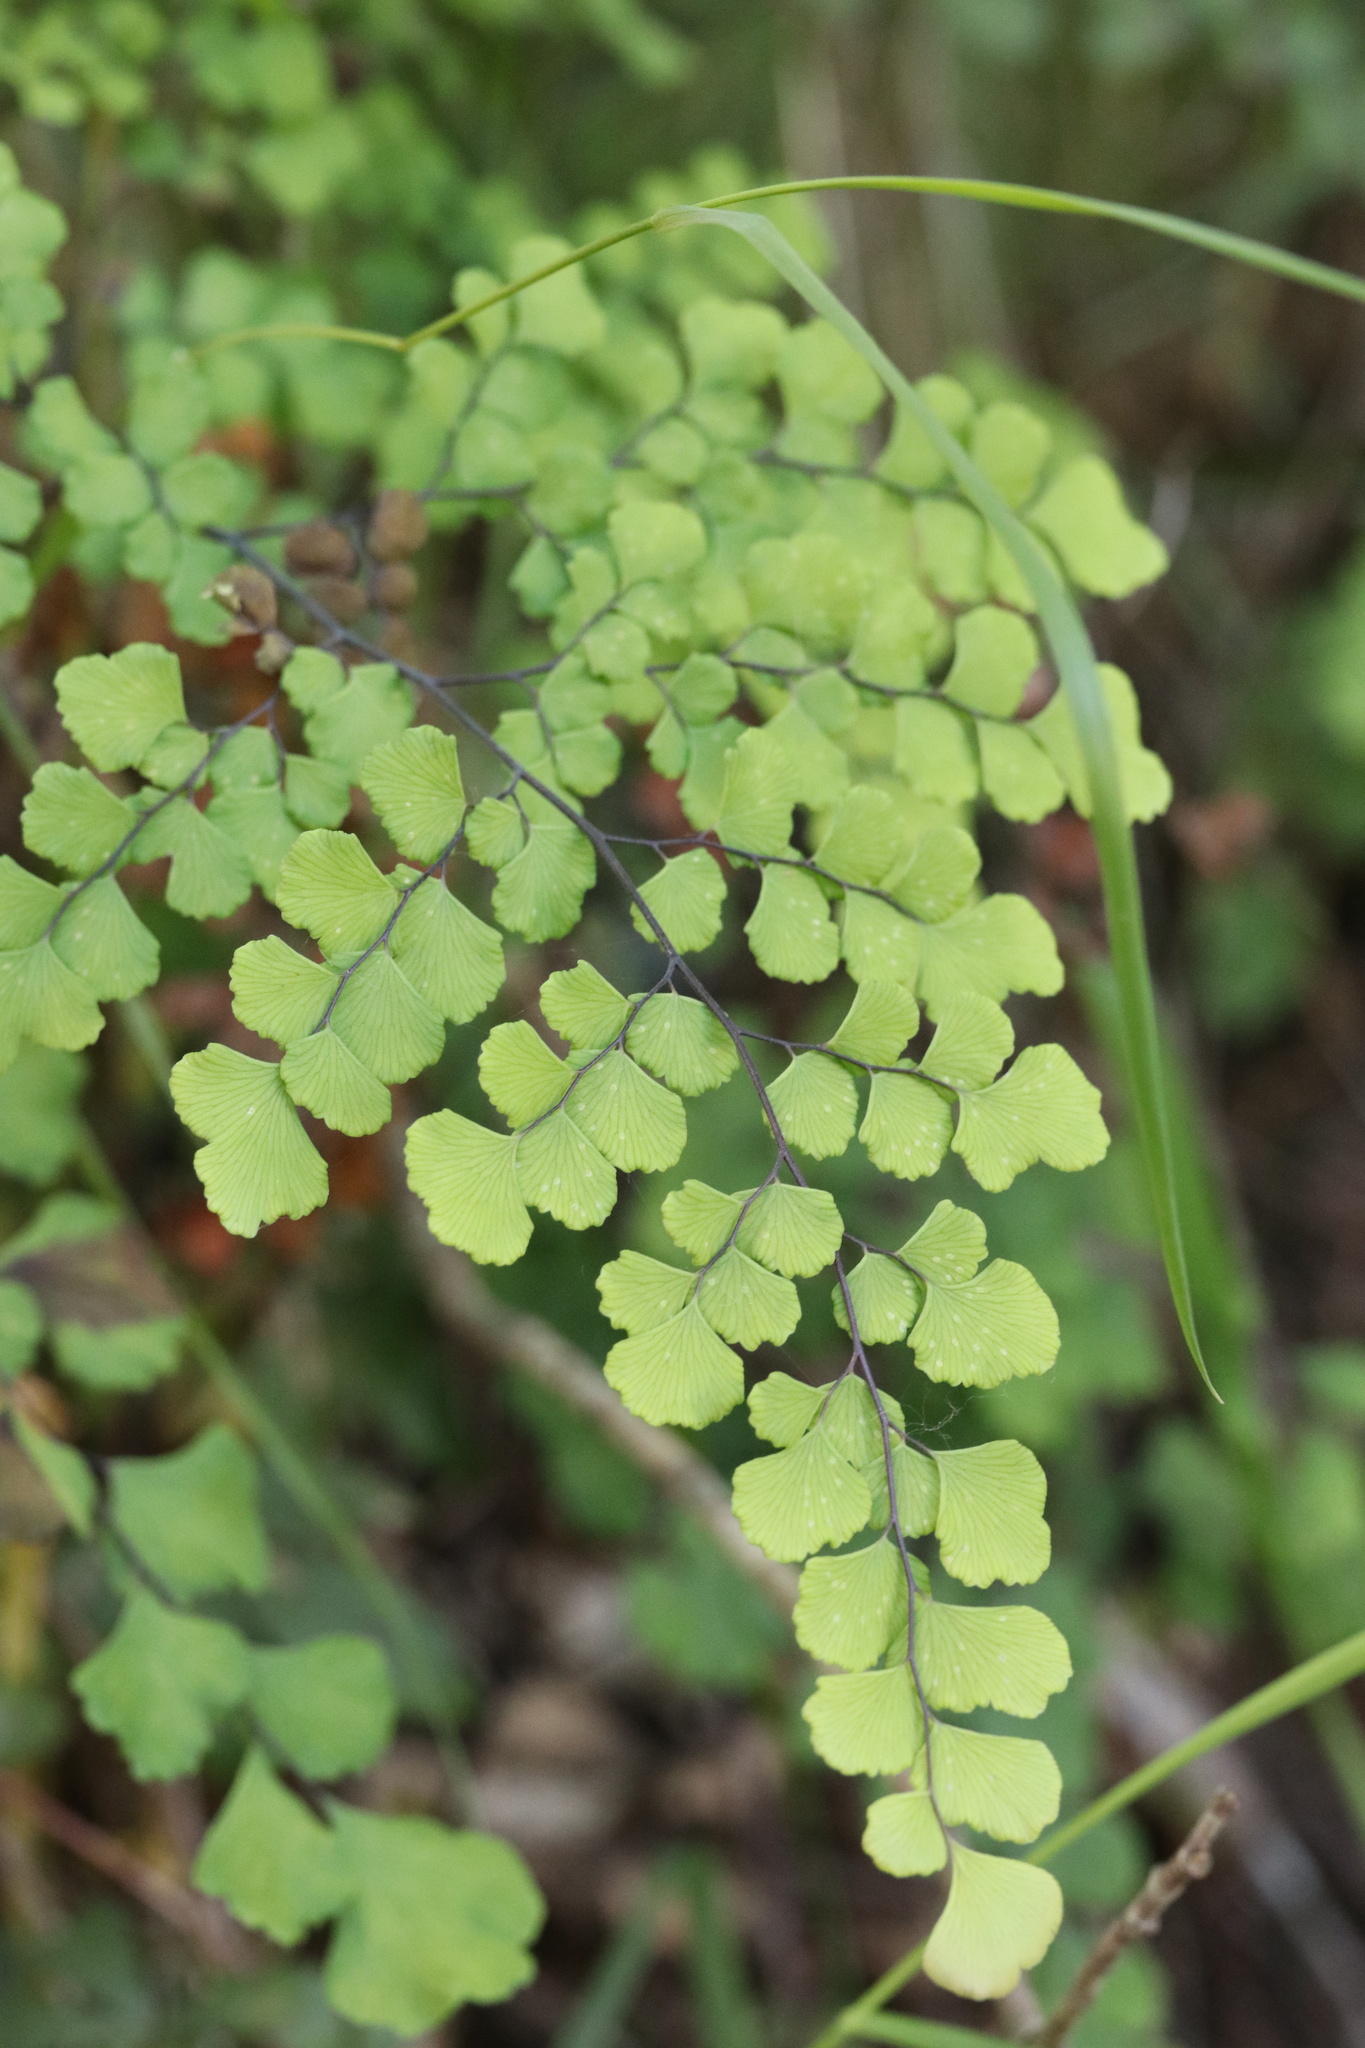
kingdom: Plantae
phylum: Tracheophyta
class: Polypodiopsida
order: Polypodiales
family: Pteridaceae
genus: Adiantum
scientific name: Adiantum chilense
